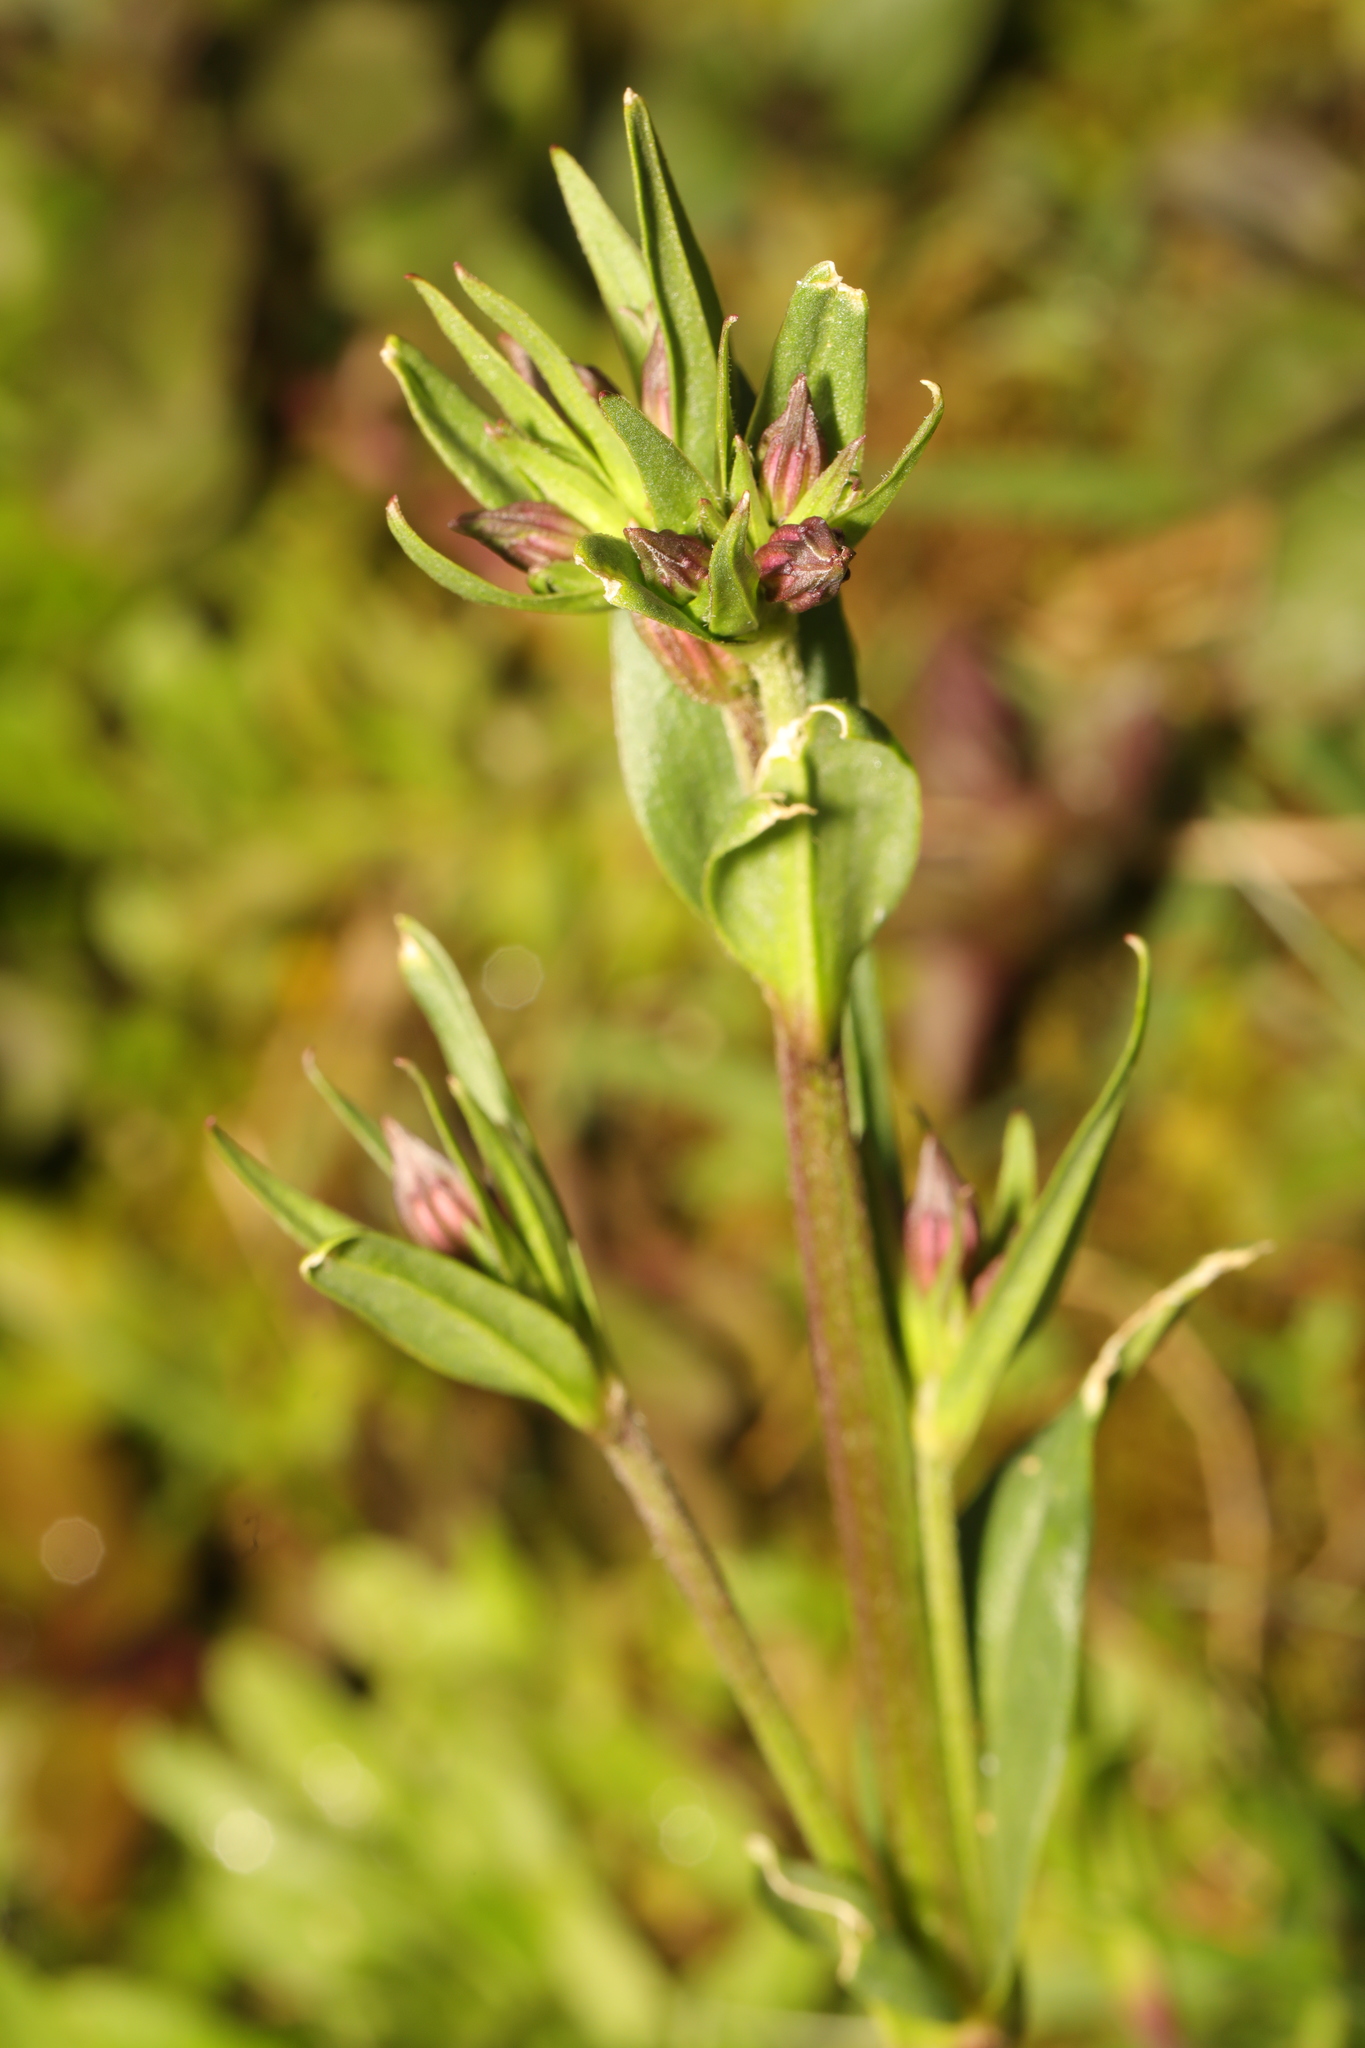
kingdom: Plantae
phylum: Tracheophyta
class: Magnoliopsida
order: Caryophyllales
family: Caryophyllaceae
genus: Silene
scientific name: Silene flos-cuculi
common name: Ragged-robin
